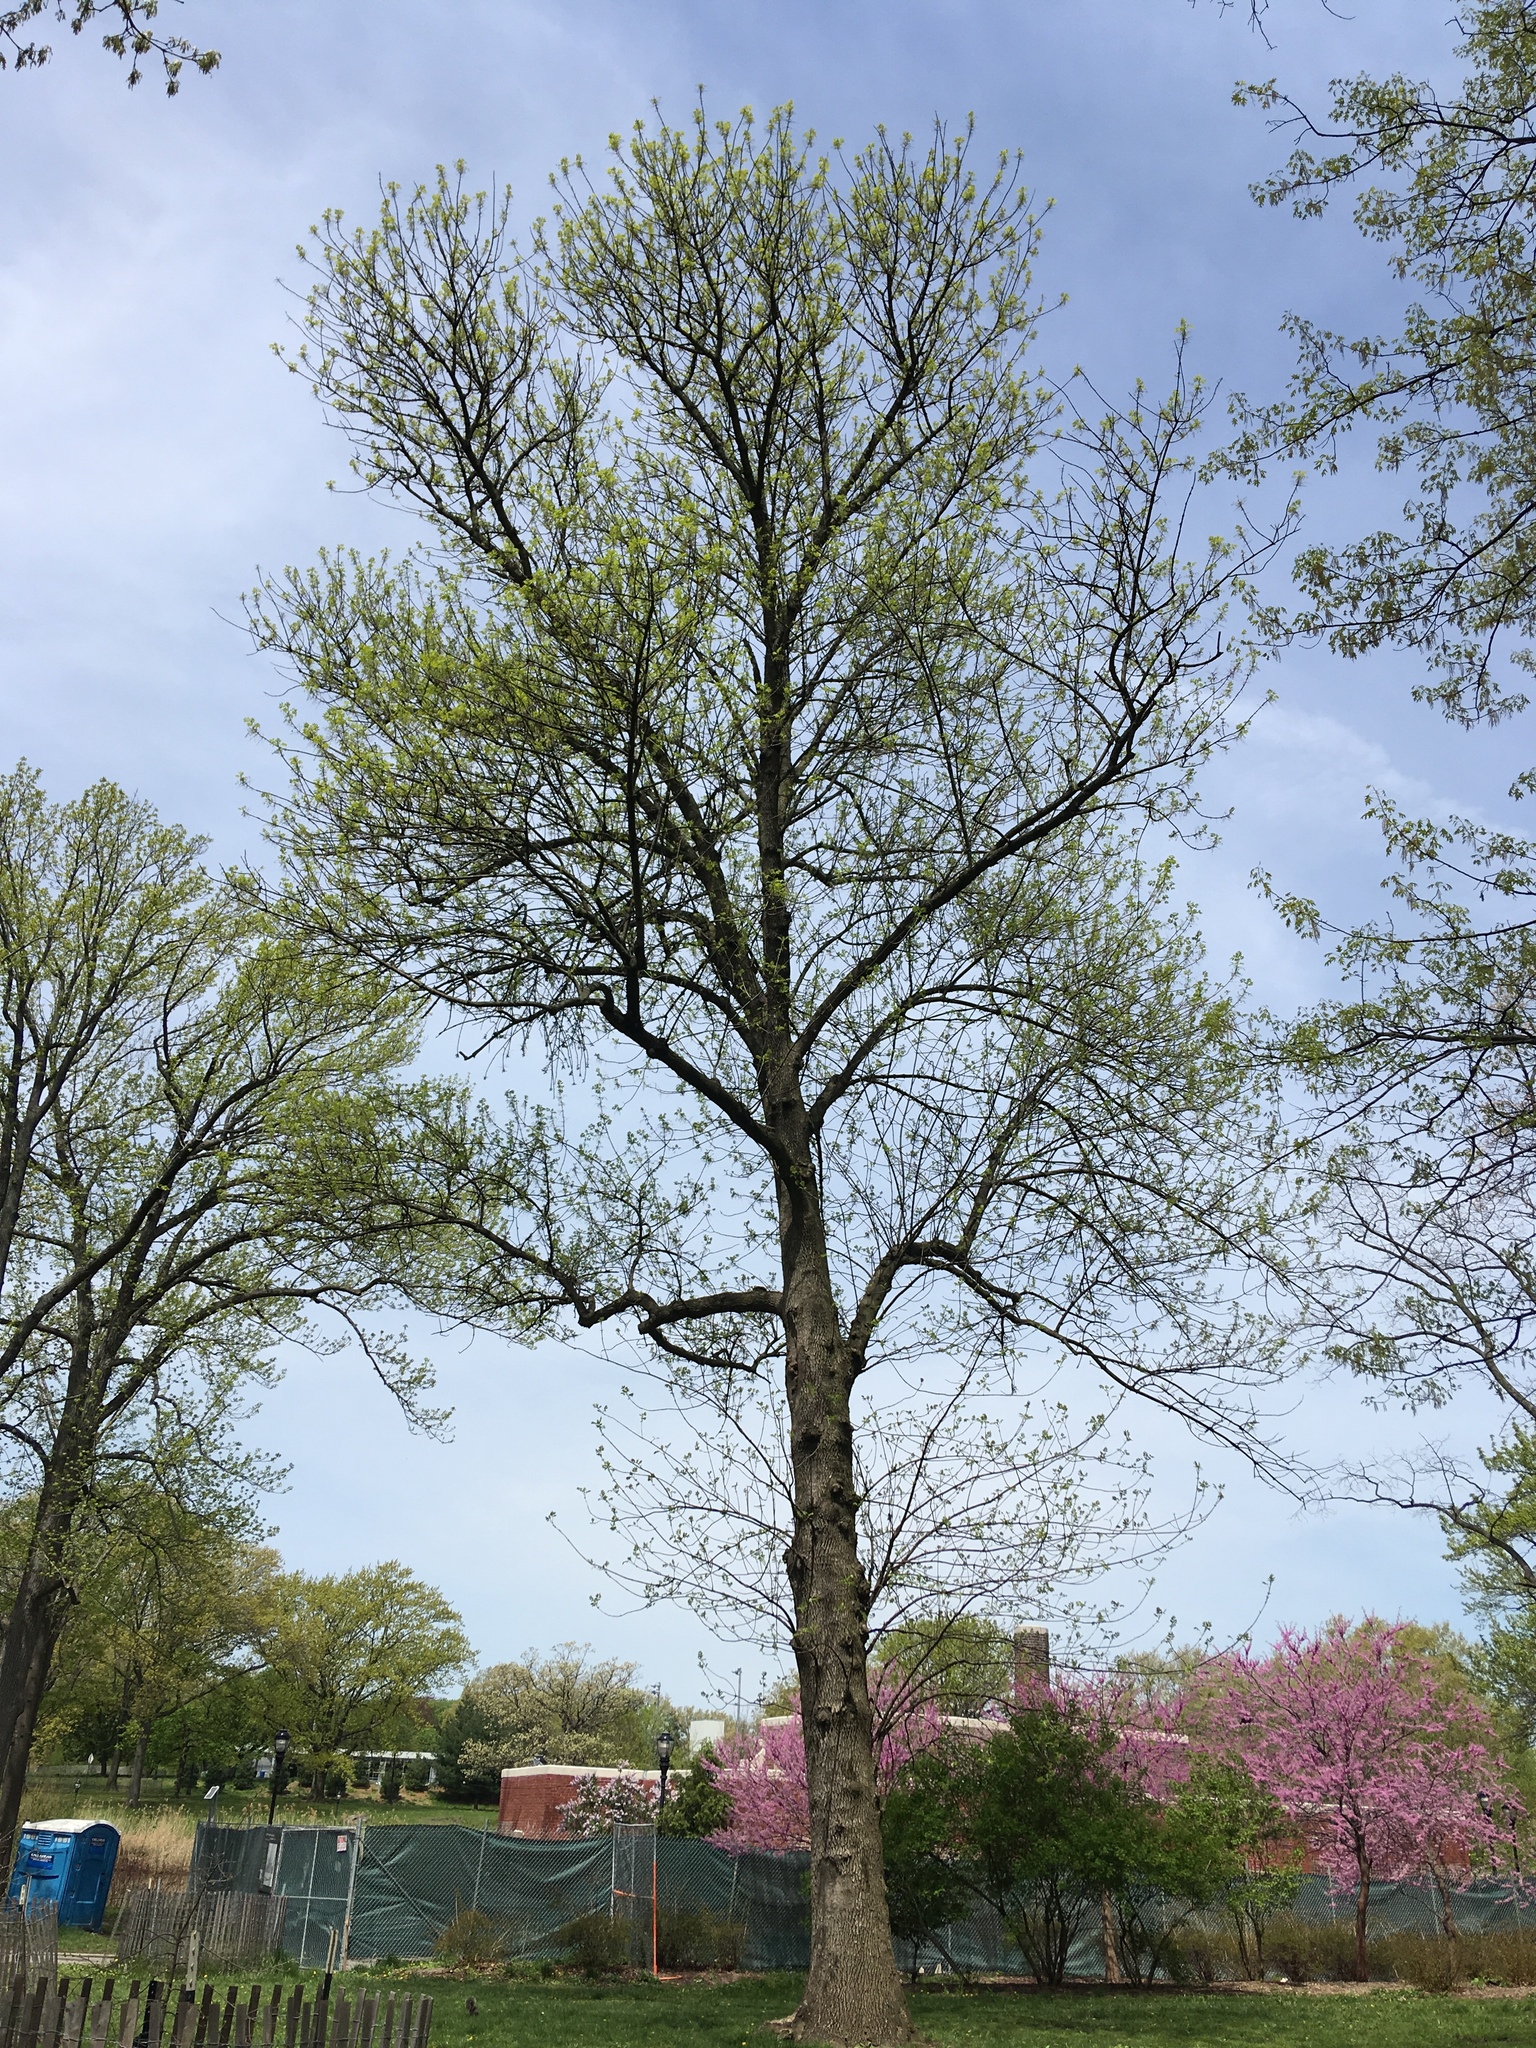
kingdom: Plantae
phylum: Tracheophyta
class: Magnoliopsida
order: Lamiales
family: Oleaceae
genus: Fraxinus
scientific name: Fraxinus americana
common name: White ash
